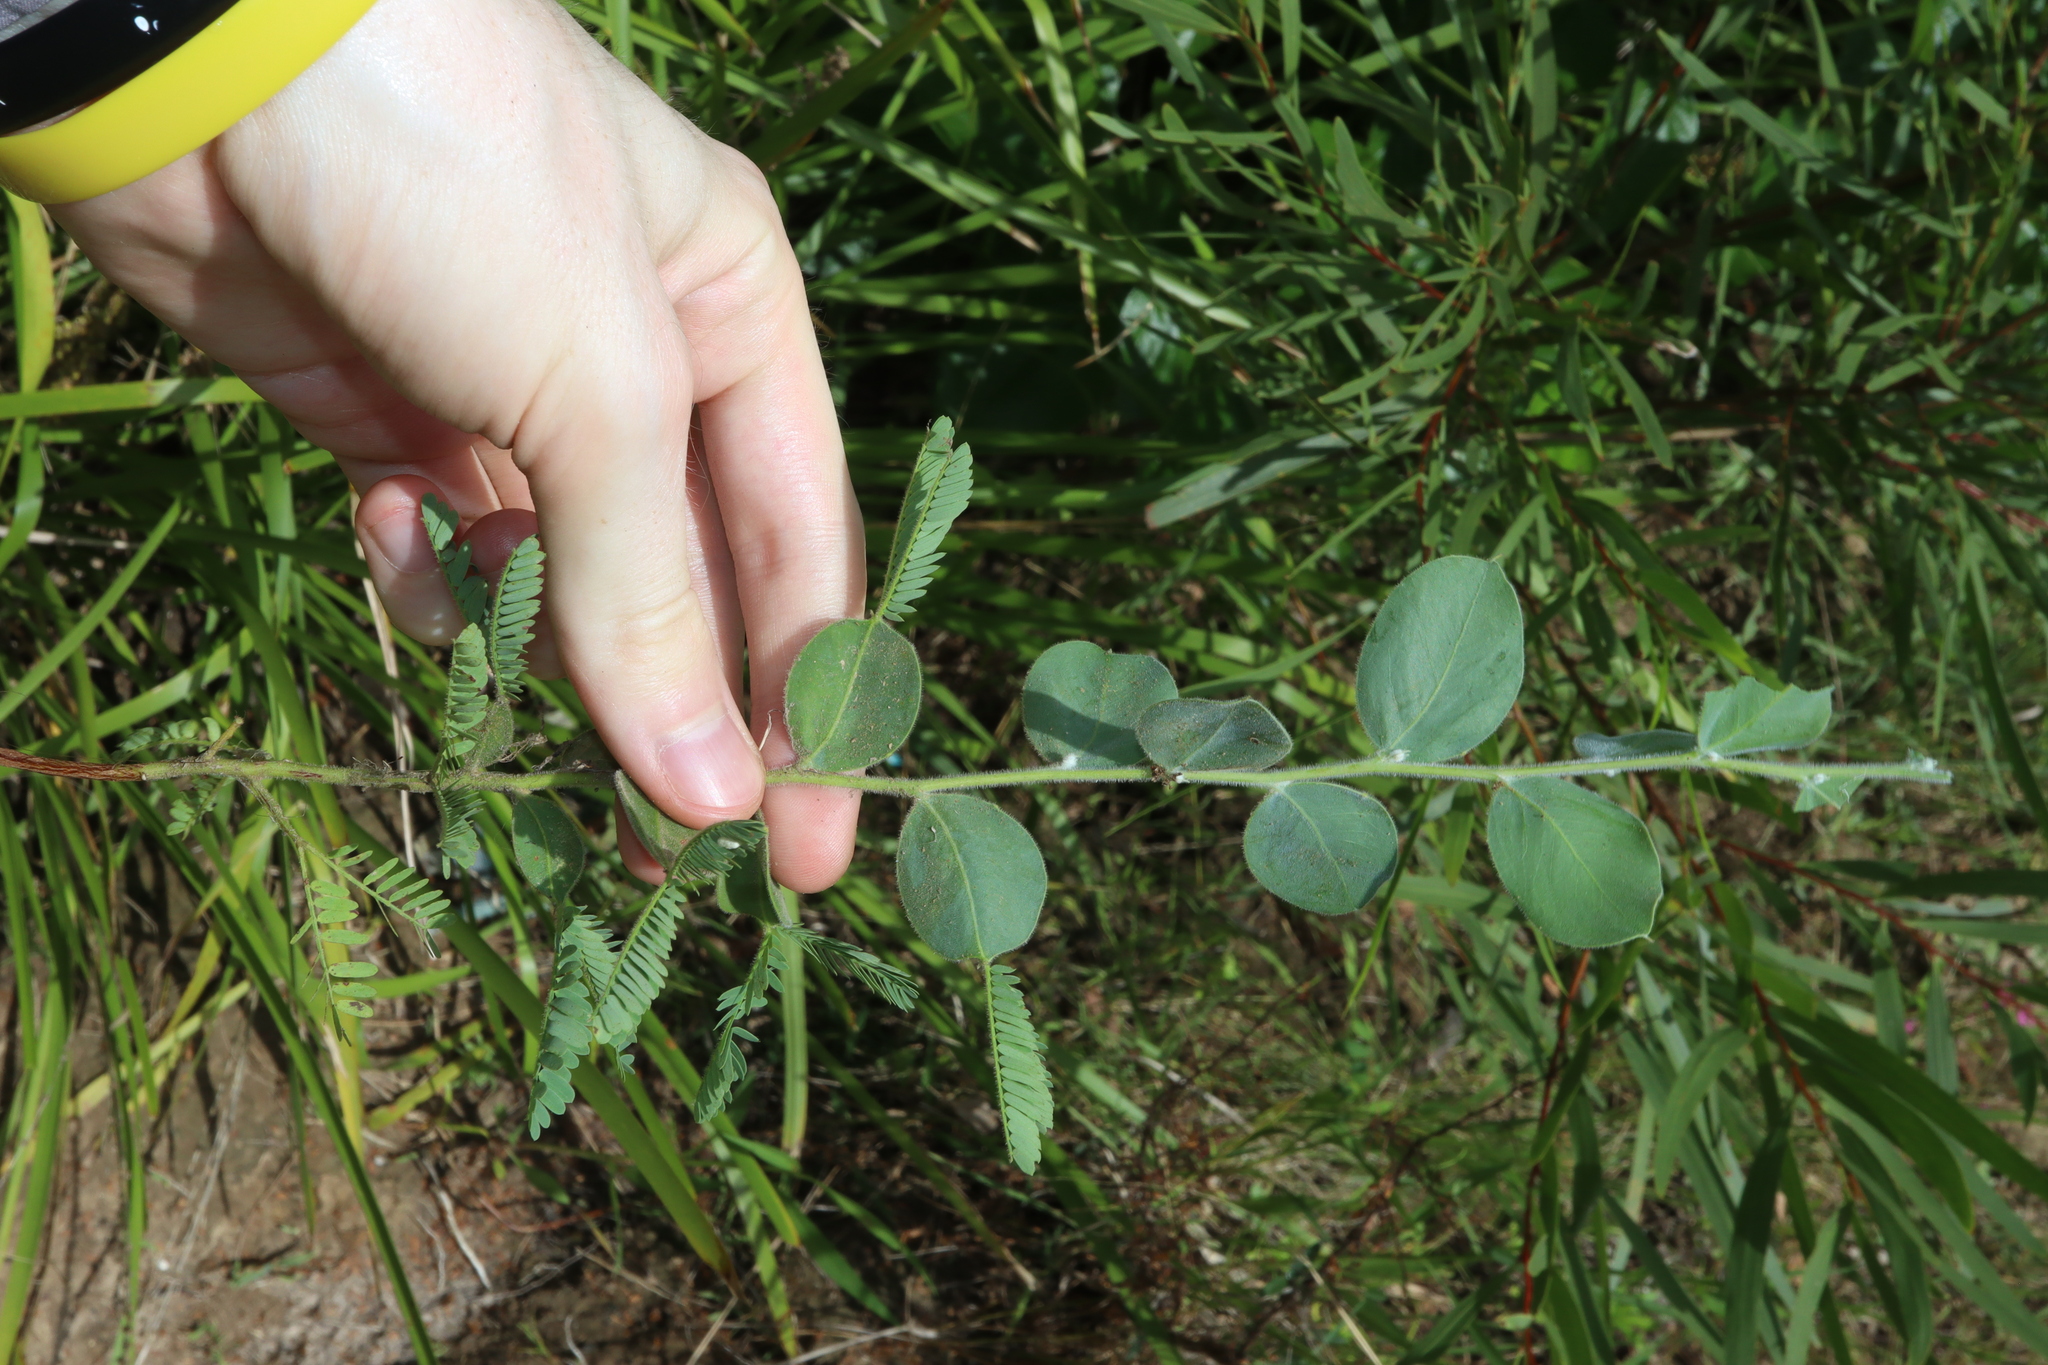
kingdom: Plantae
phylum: Tracheophyta
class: Magnoliopsida
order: Fabales
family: Fabaceae
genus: Acacia
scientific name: Acacia podalyriifolia
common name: Pearl wattle
